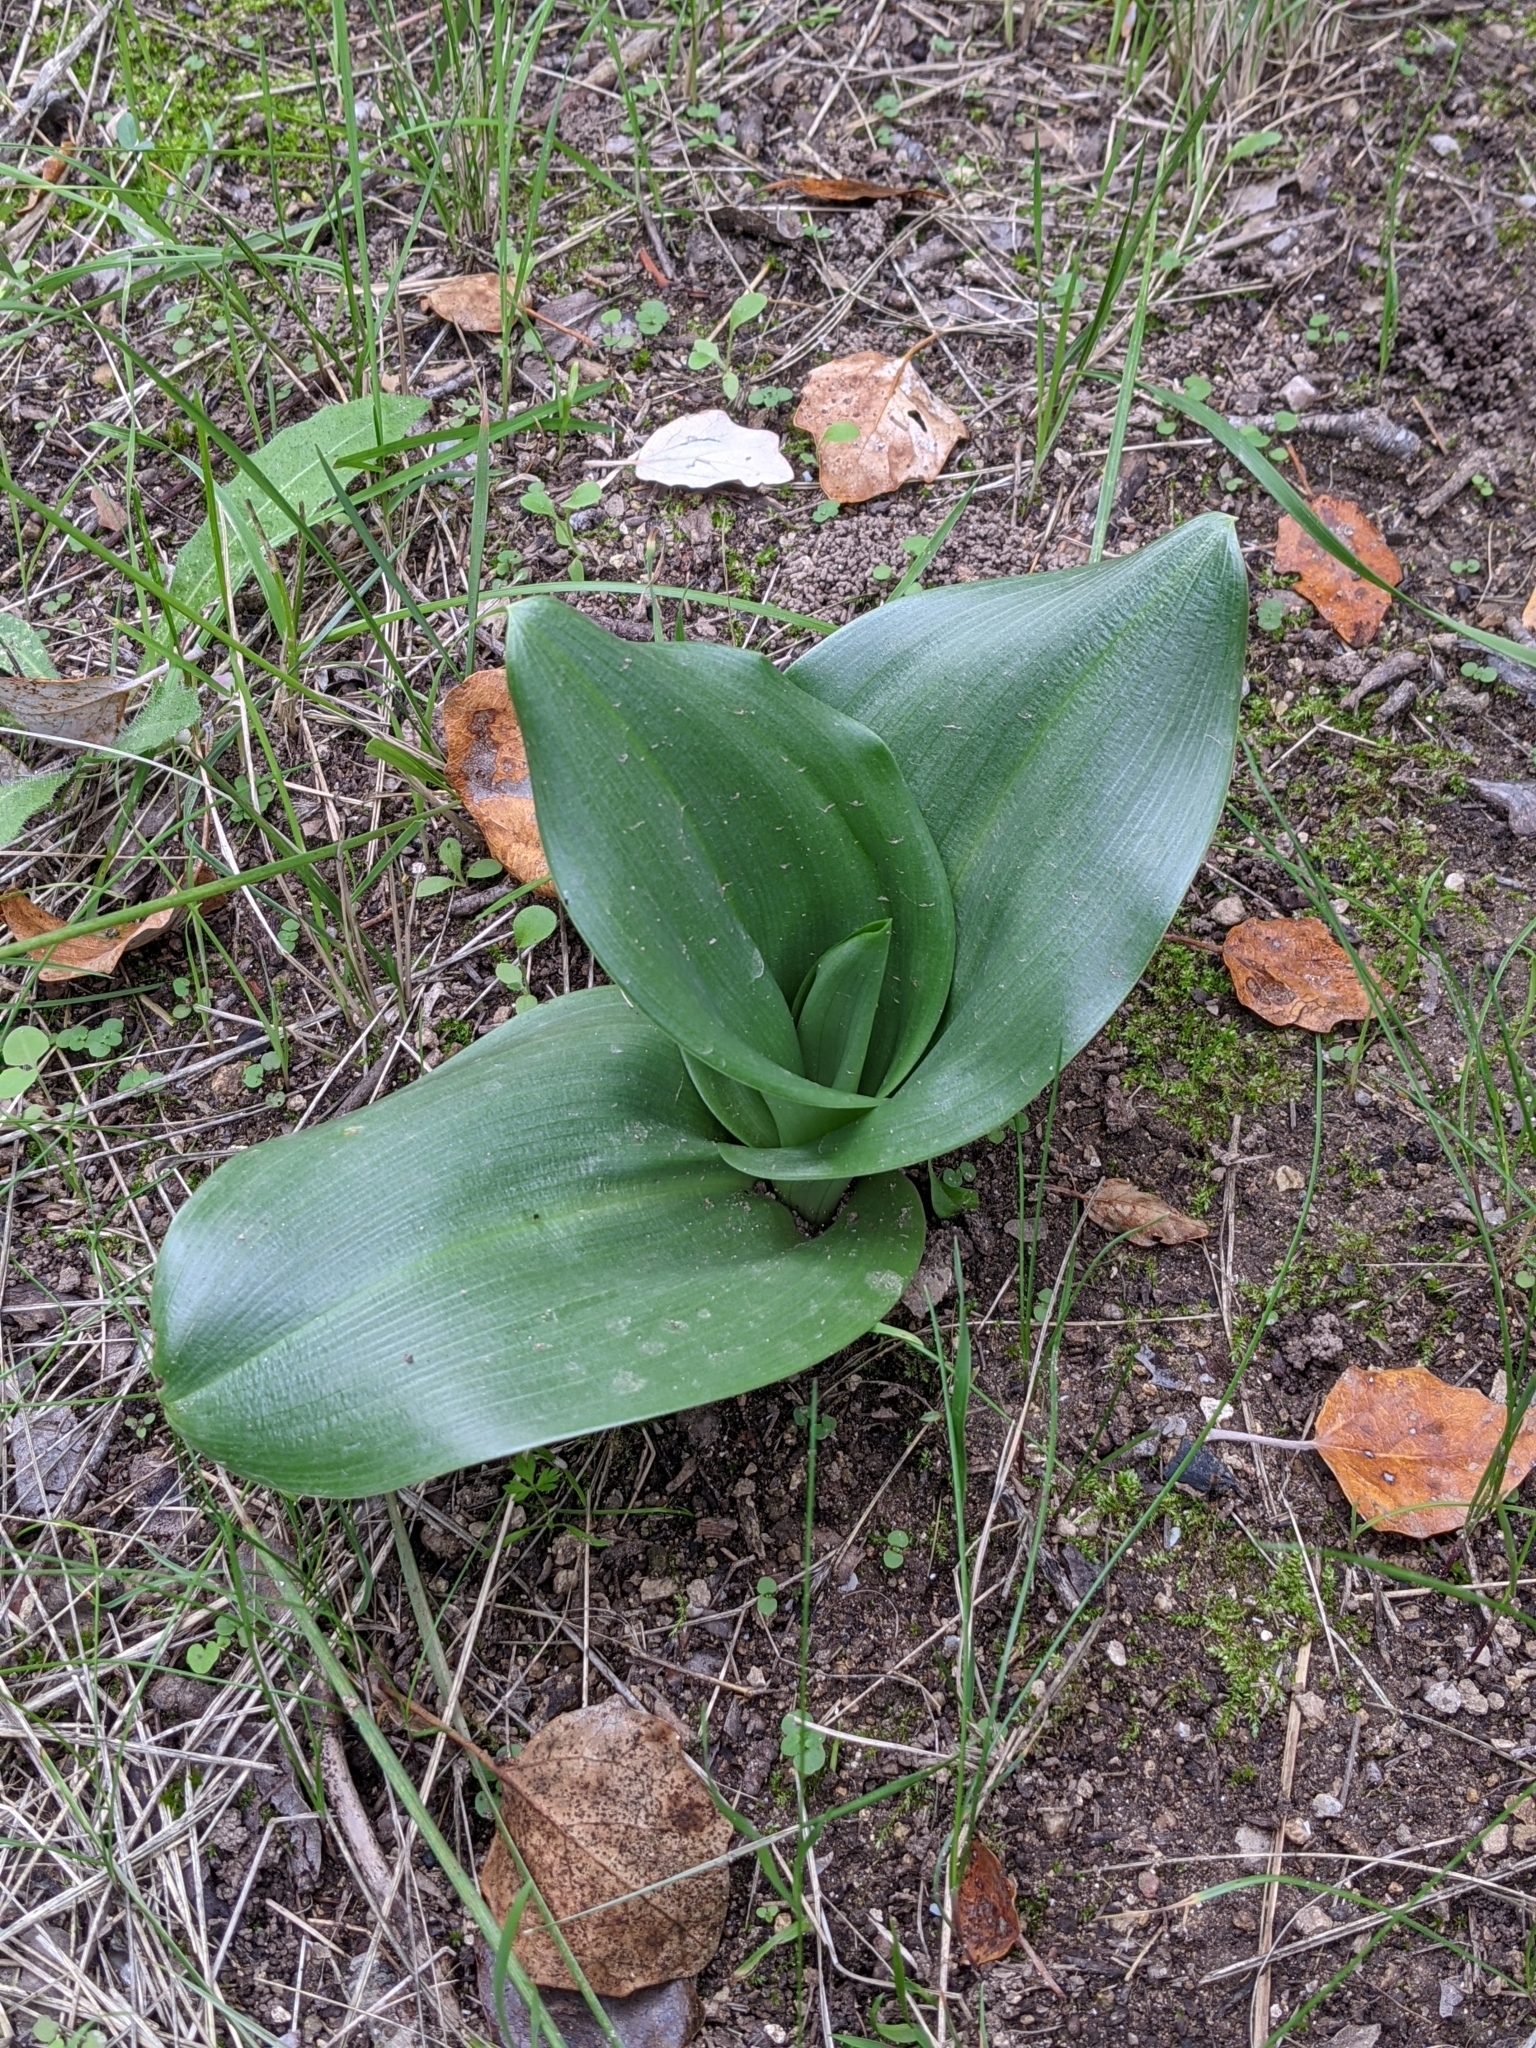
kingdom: Plantae
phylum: Tracheophyta
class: Liliopsida
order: Asparagales
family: Orchidaceae
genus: Himantoglossum
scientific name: Himantoglossum robertianum
